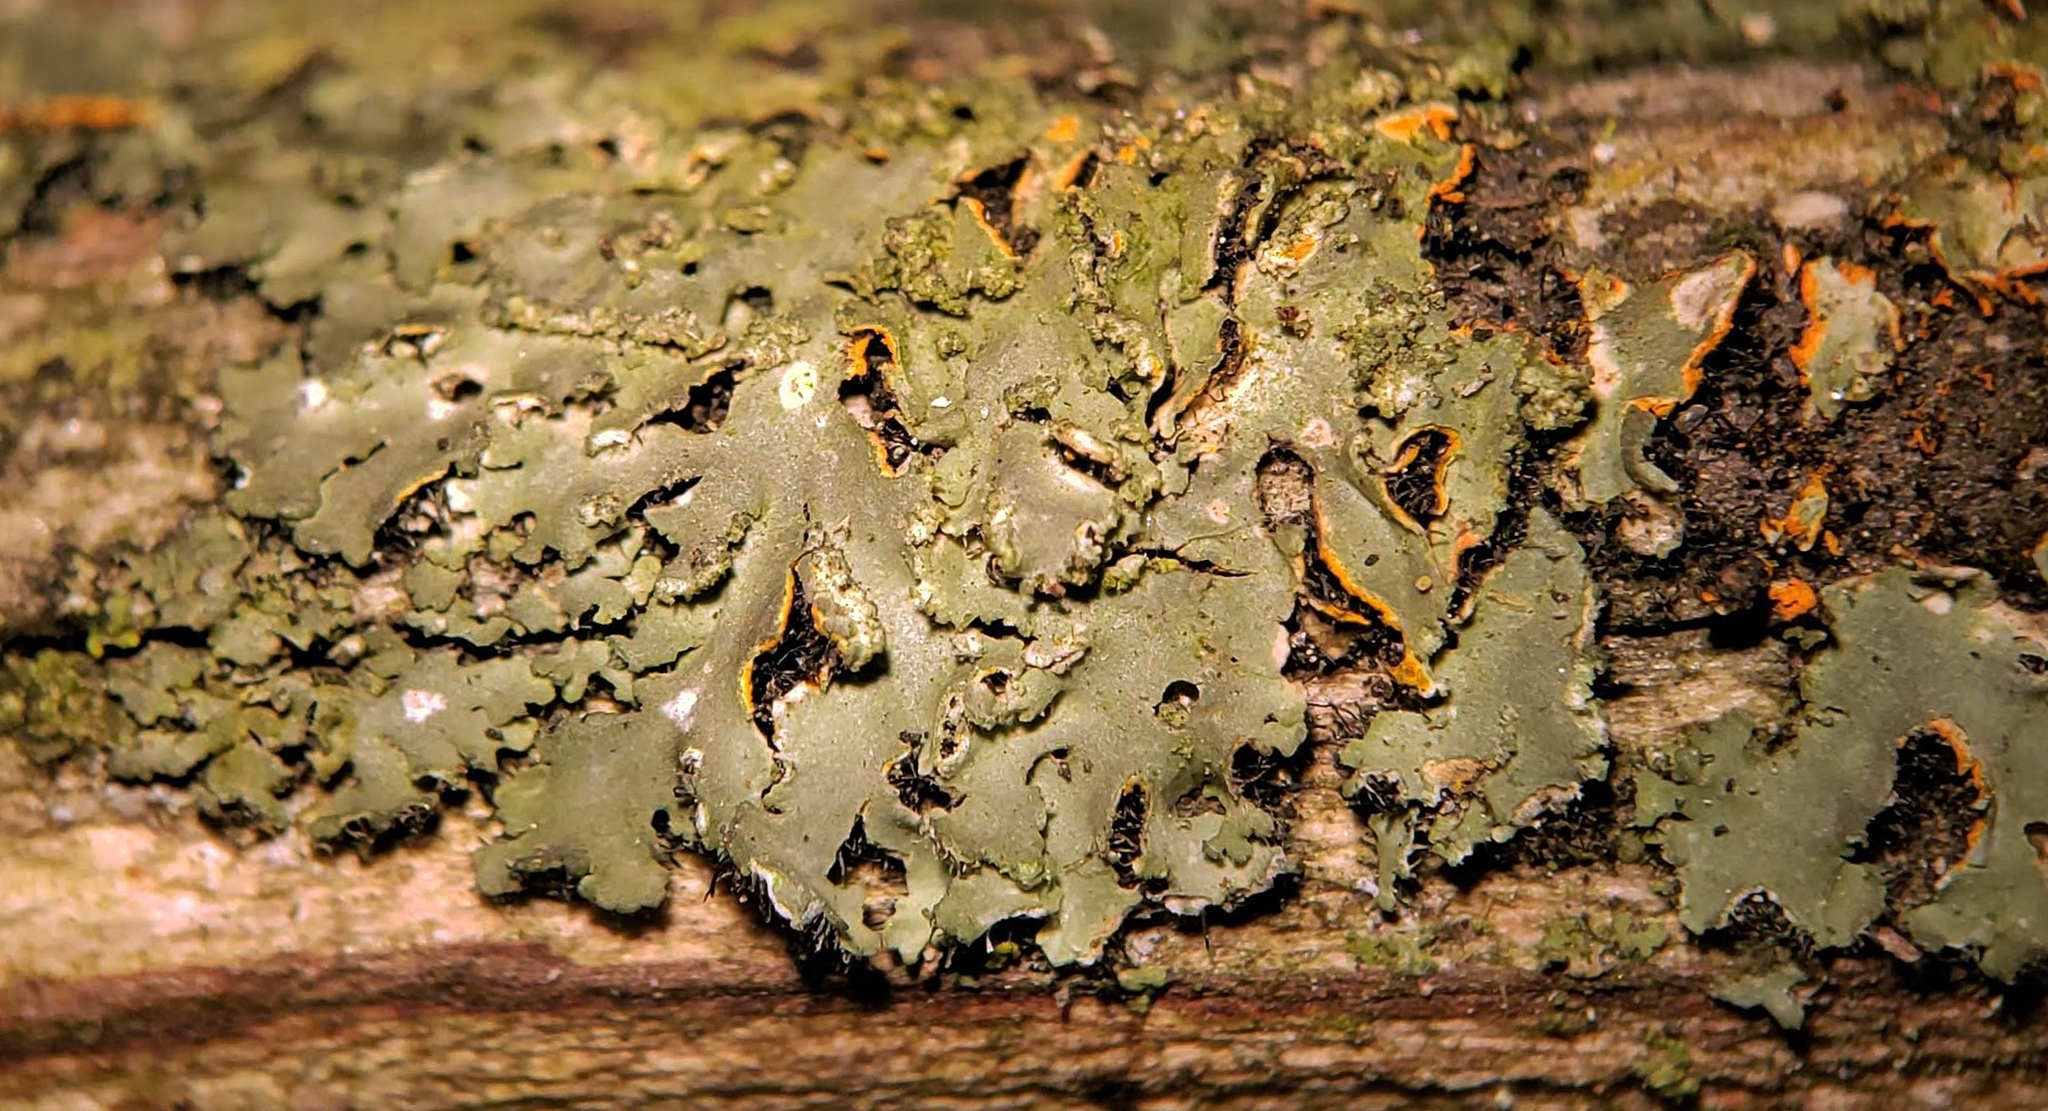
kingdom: Fungi
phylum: Ascomycota
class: Lecanoromycetes
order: Caliciales
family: Physciaceae
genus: Phaeophyscia
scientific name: Phaeophyscia rubropulchra
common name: Orange-cored shadow lichen
